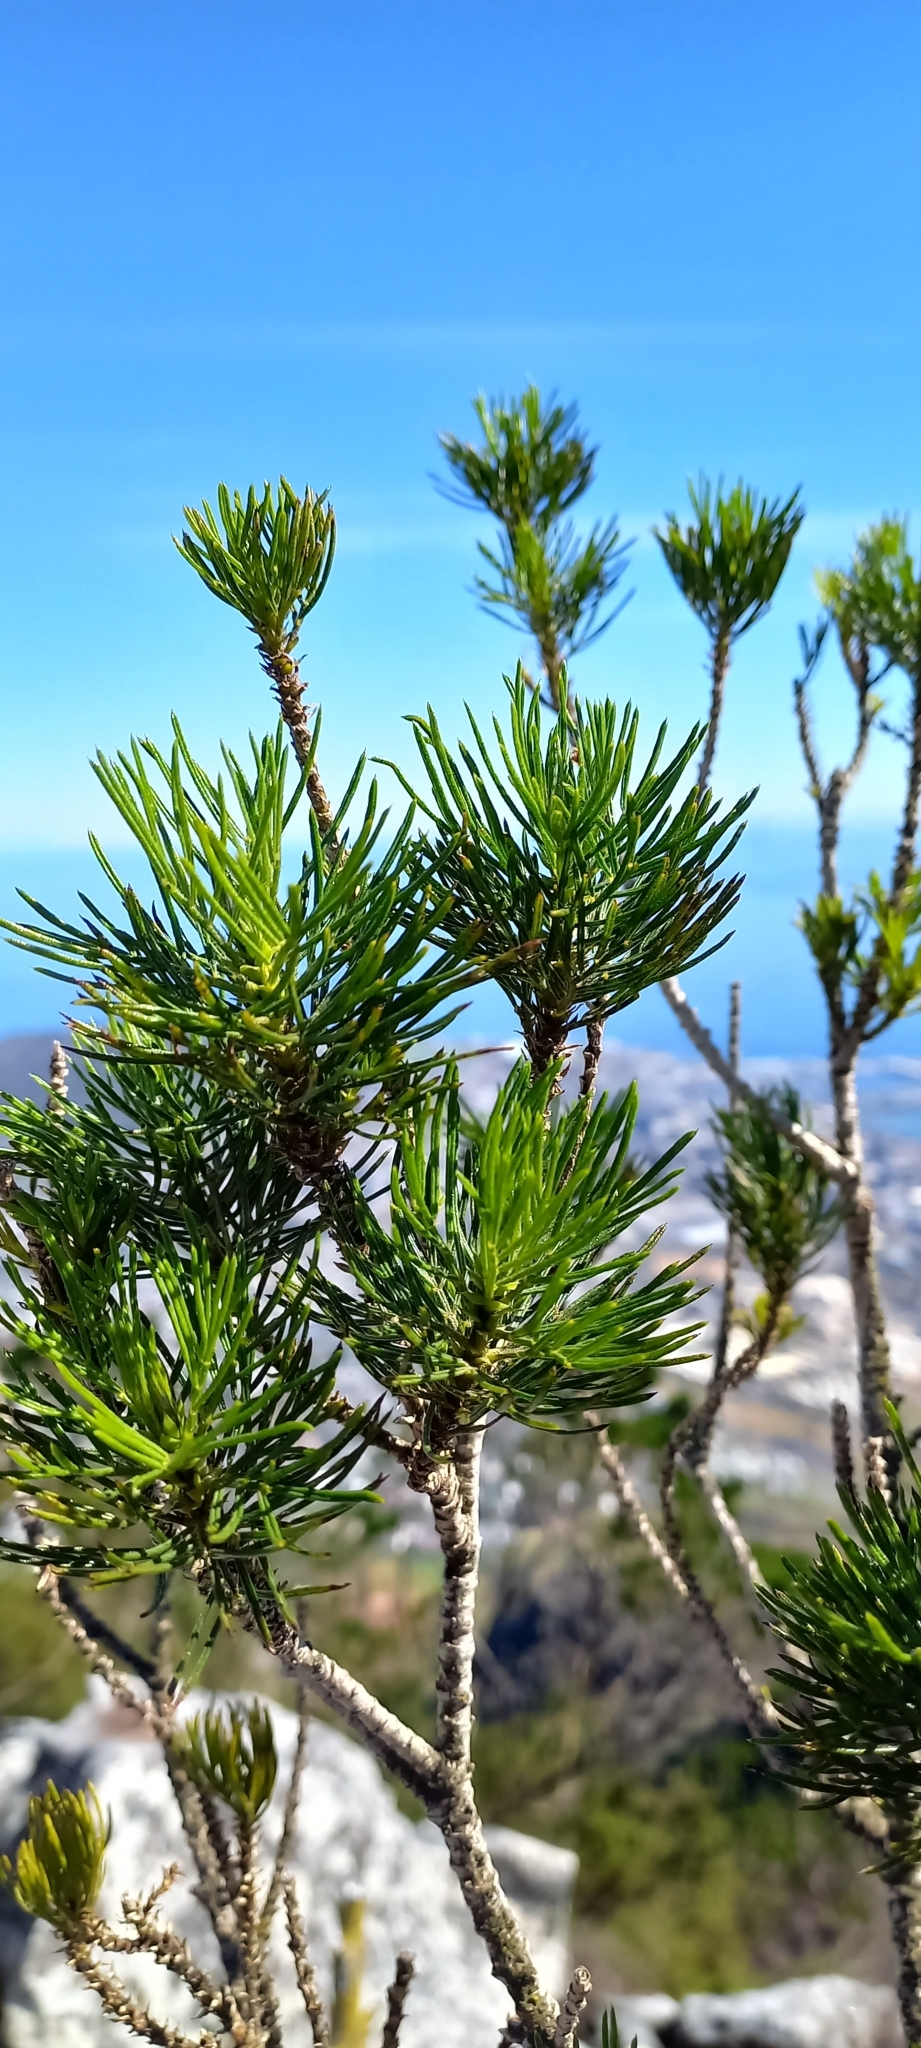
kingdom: Plantae
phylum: Tracheophyta
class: Magnoliopsida
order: Fabales
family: Fabaceae
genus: Psoralea
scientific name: Psoralea pinnata
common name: African scurfpea
